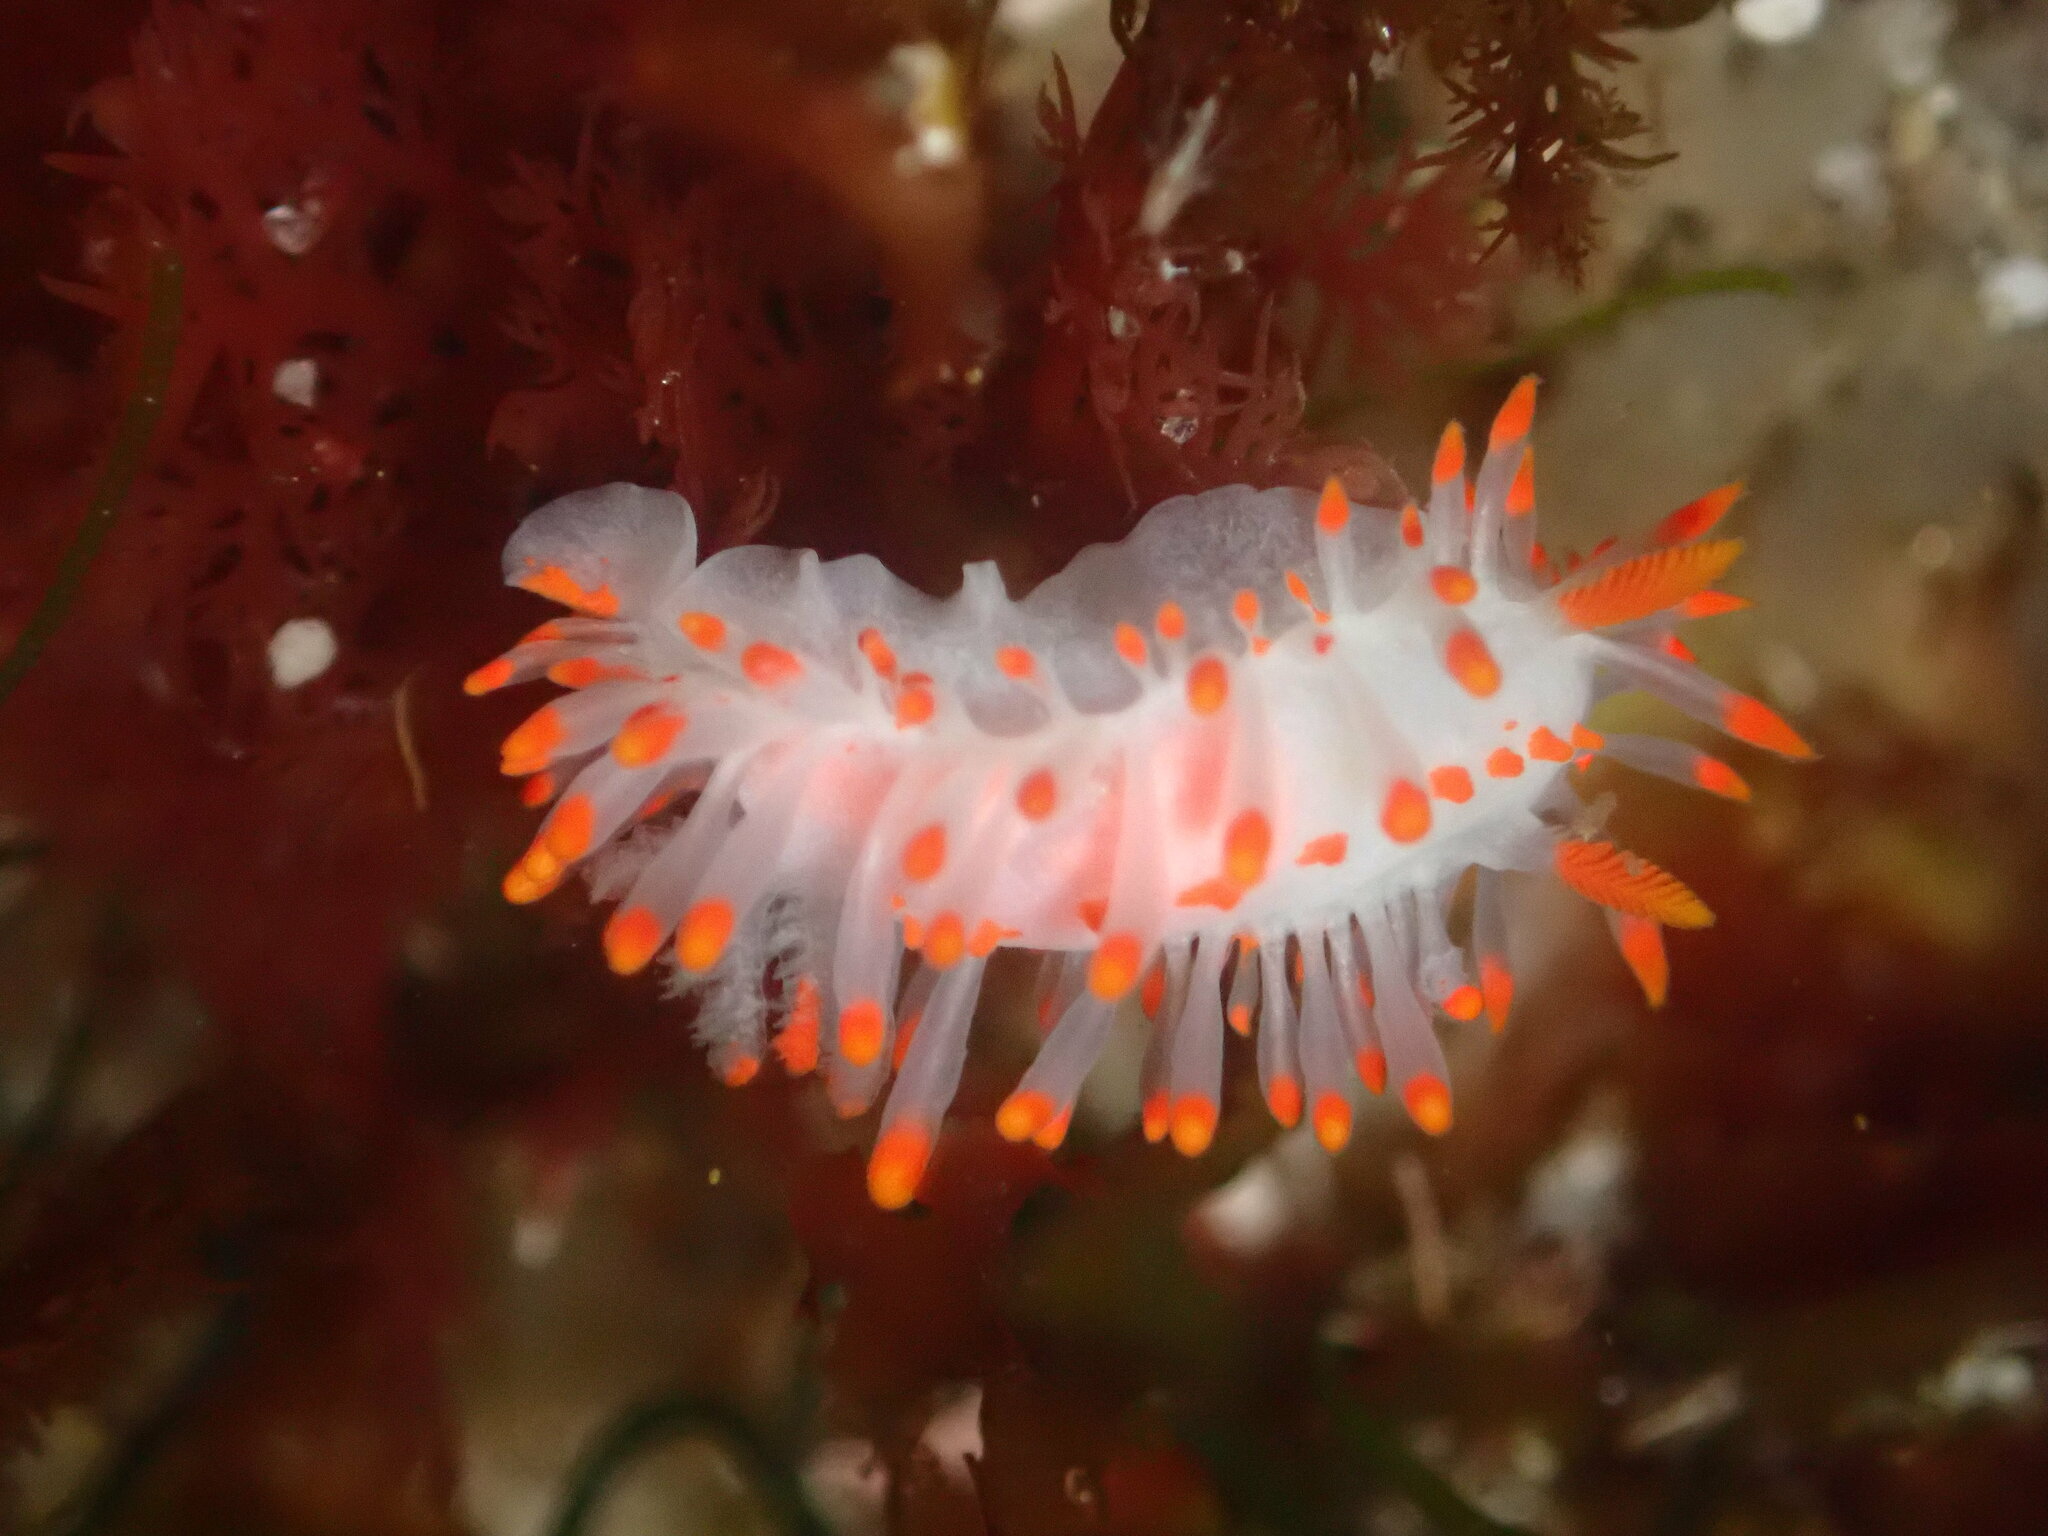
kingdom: Animalia
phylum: Mollusca
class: Gastropoda
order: Nudibranchia
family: Polyceridae
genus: Limacia
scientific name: Limacia mcdonaldi
